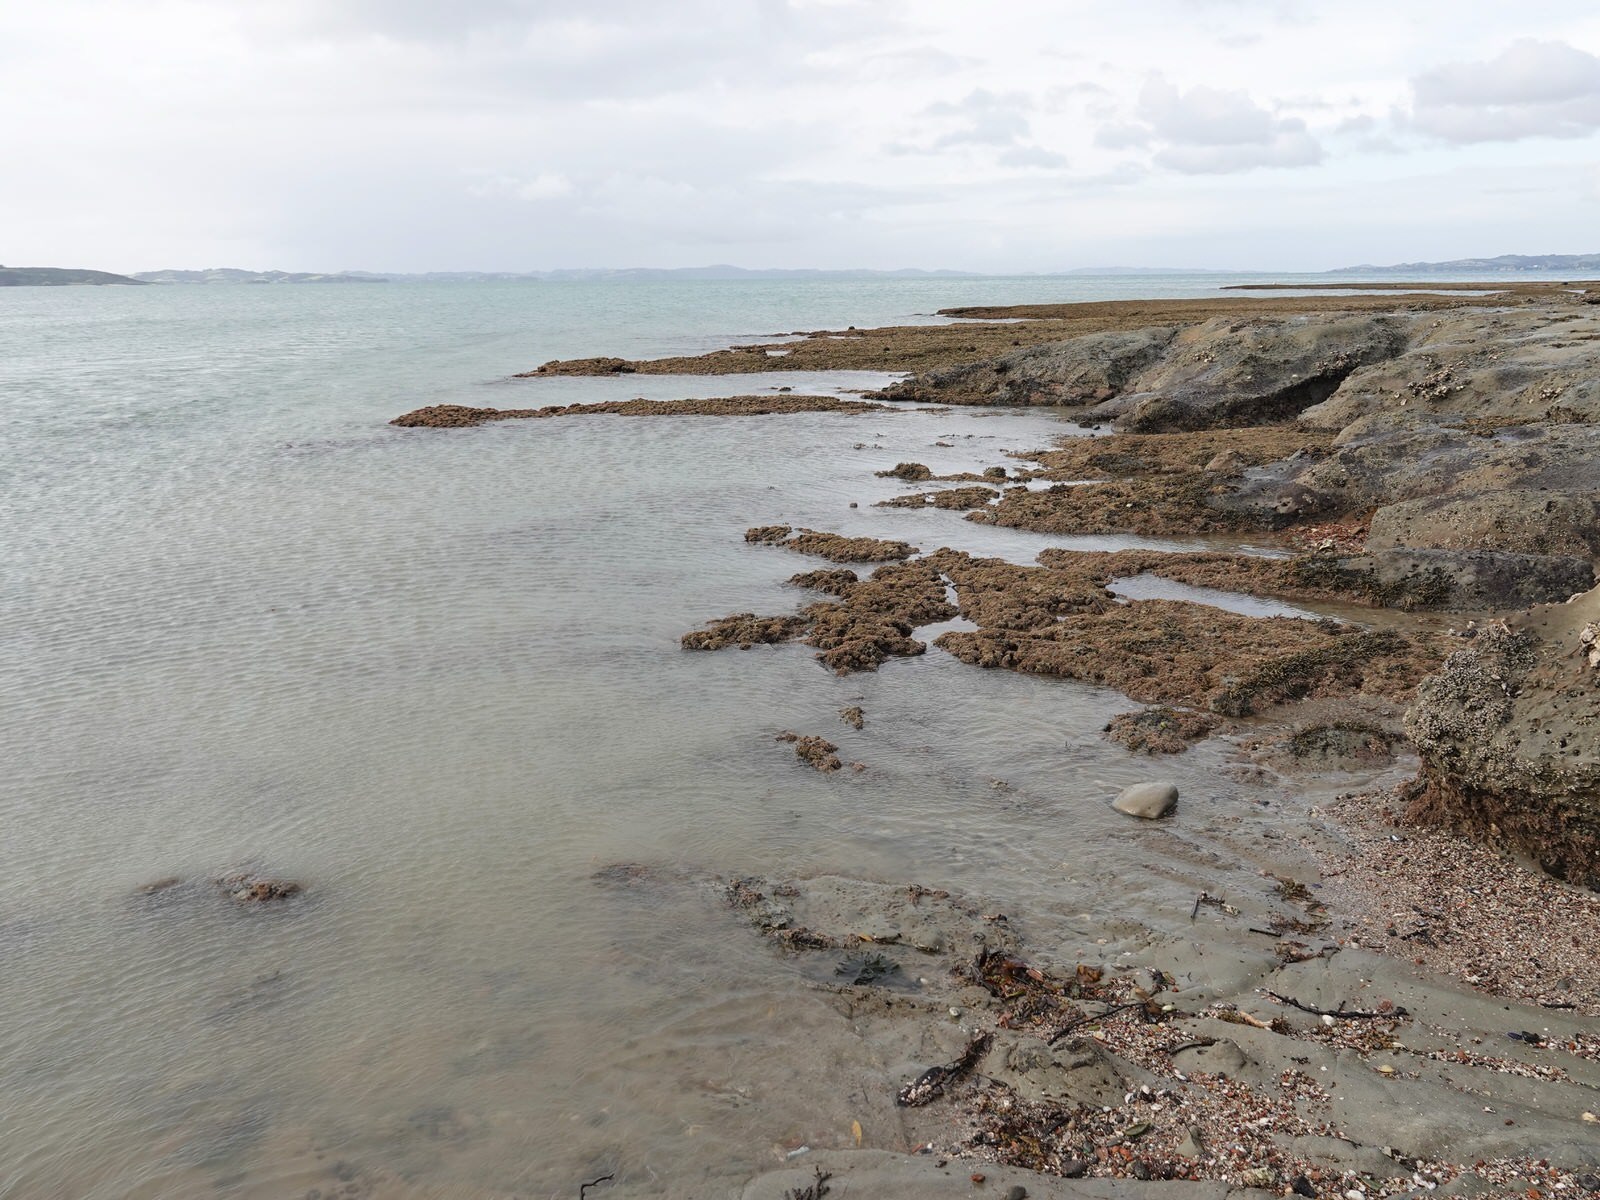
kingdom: Plantae
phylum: Chlorophyta
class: Ulvophyceae
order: Bryopsidales
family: Codiaceae
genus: Codium
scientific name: Codium fragile
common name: Dead man's fingers
